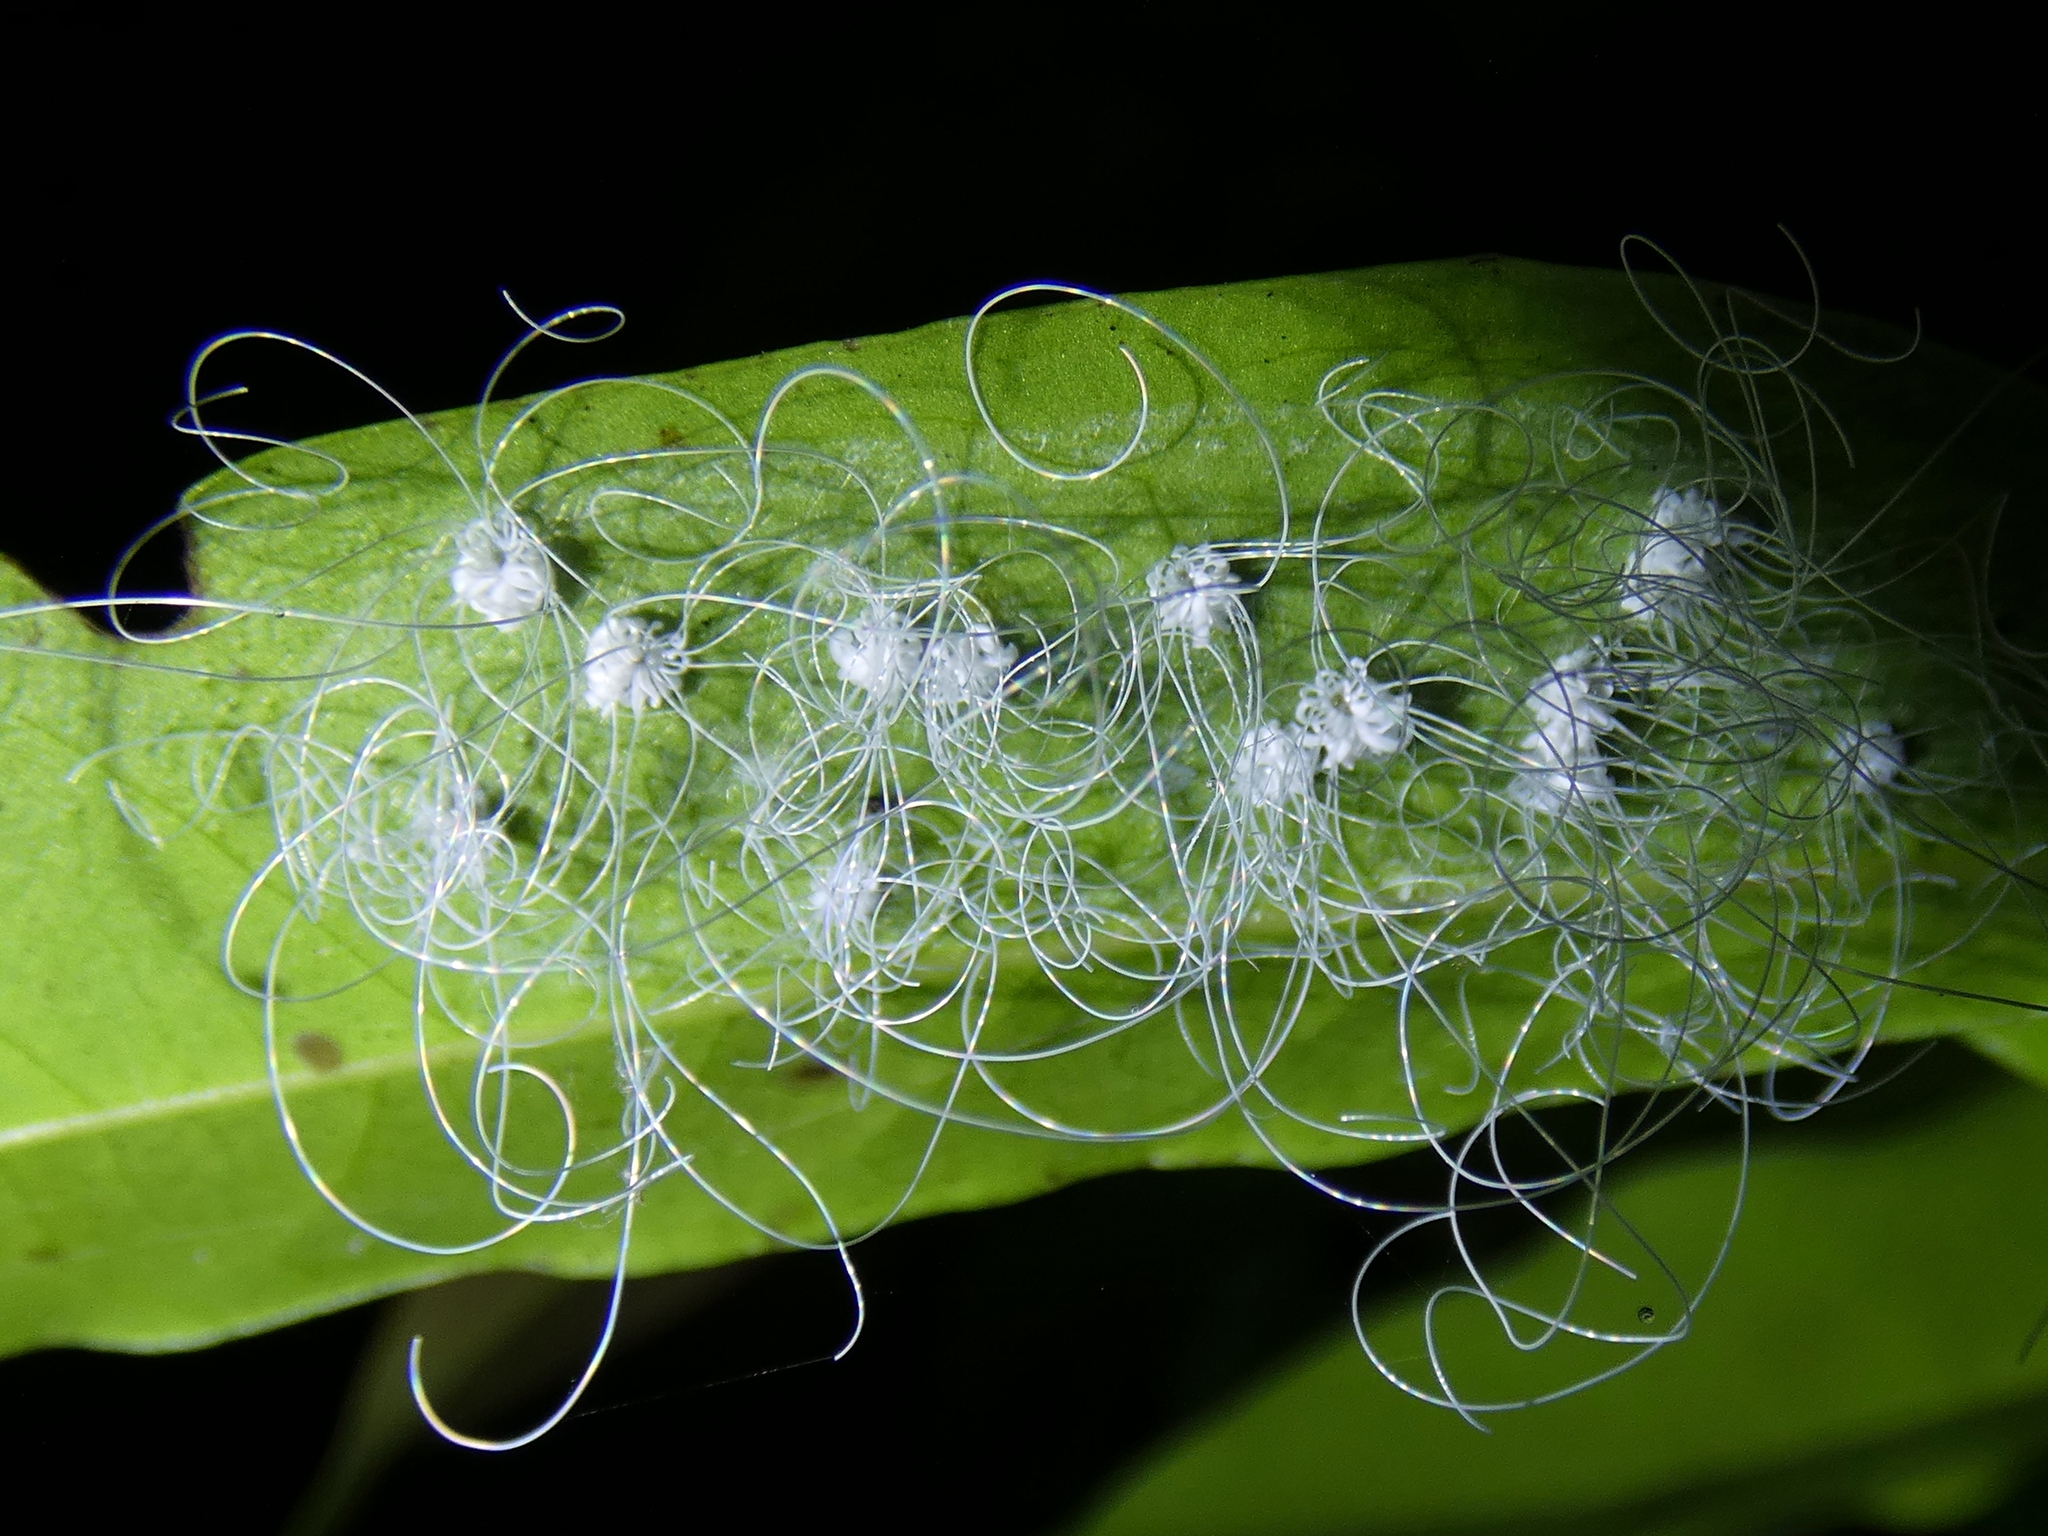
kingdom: Animalia
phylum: Arthropoda
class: Insecta
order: Hemiptera
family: Aleyrodidae
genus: Aleuroctarthrus
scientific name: Aleuroctarthrus
